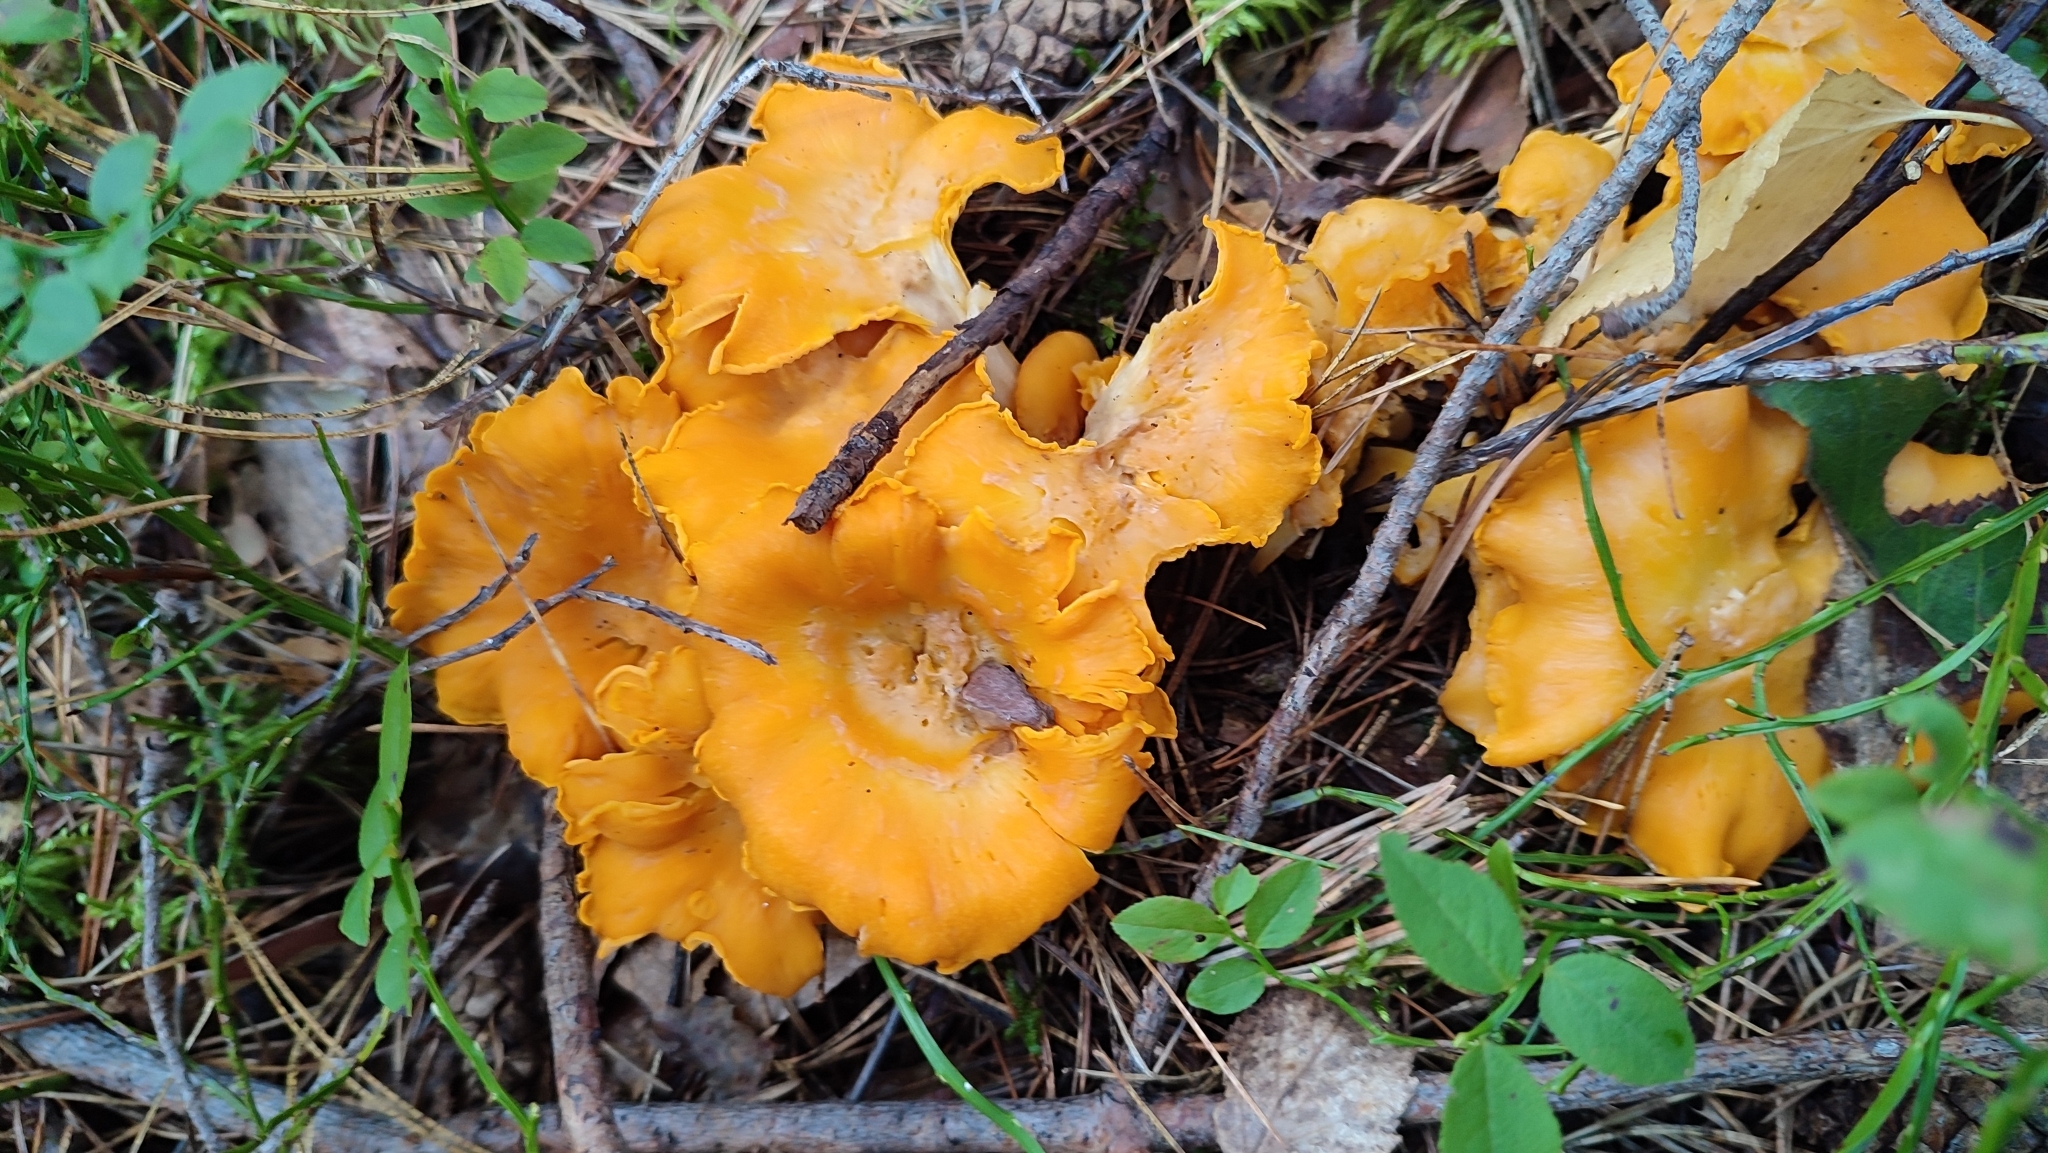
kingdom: Fungi
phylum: Basidiomycota
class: Agaricomycetes
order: Cantharellales
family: Hydnaceae
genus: Cantharellus
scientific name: Cantharellus cibarius
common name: Chanterelle
